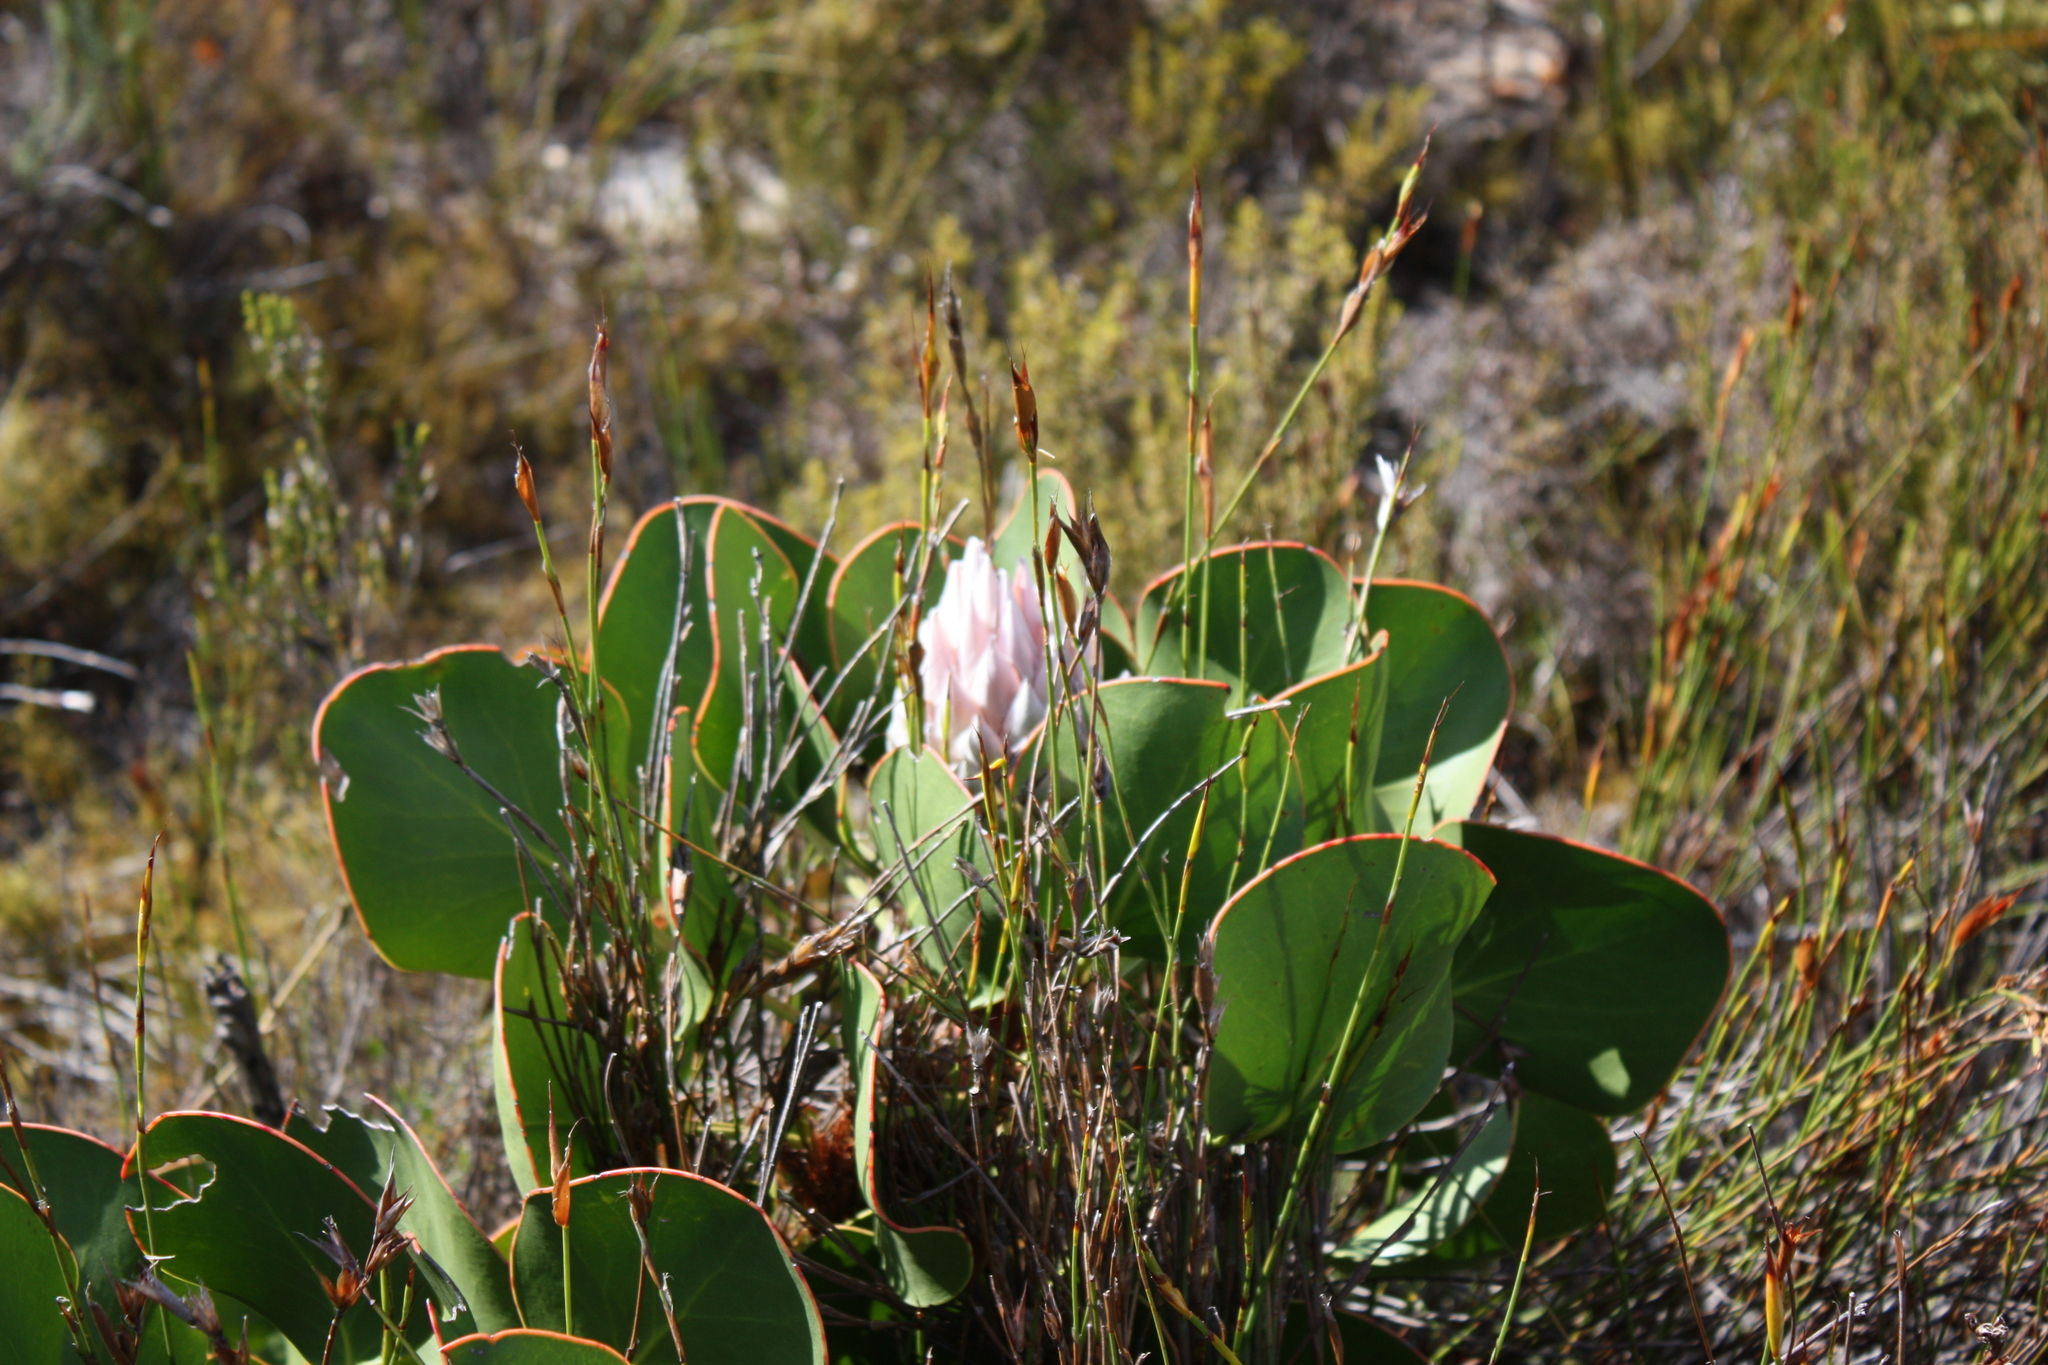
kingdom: Plantae
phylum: Tracheophyta
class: Magnoliopsida
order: Proteales
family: Proteaceae
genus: Protea
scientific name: Protea cynaroides
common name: King protea
